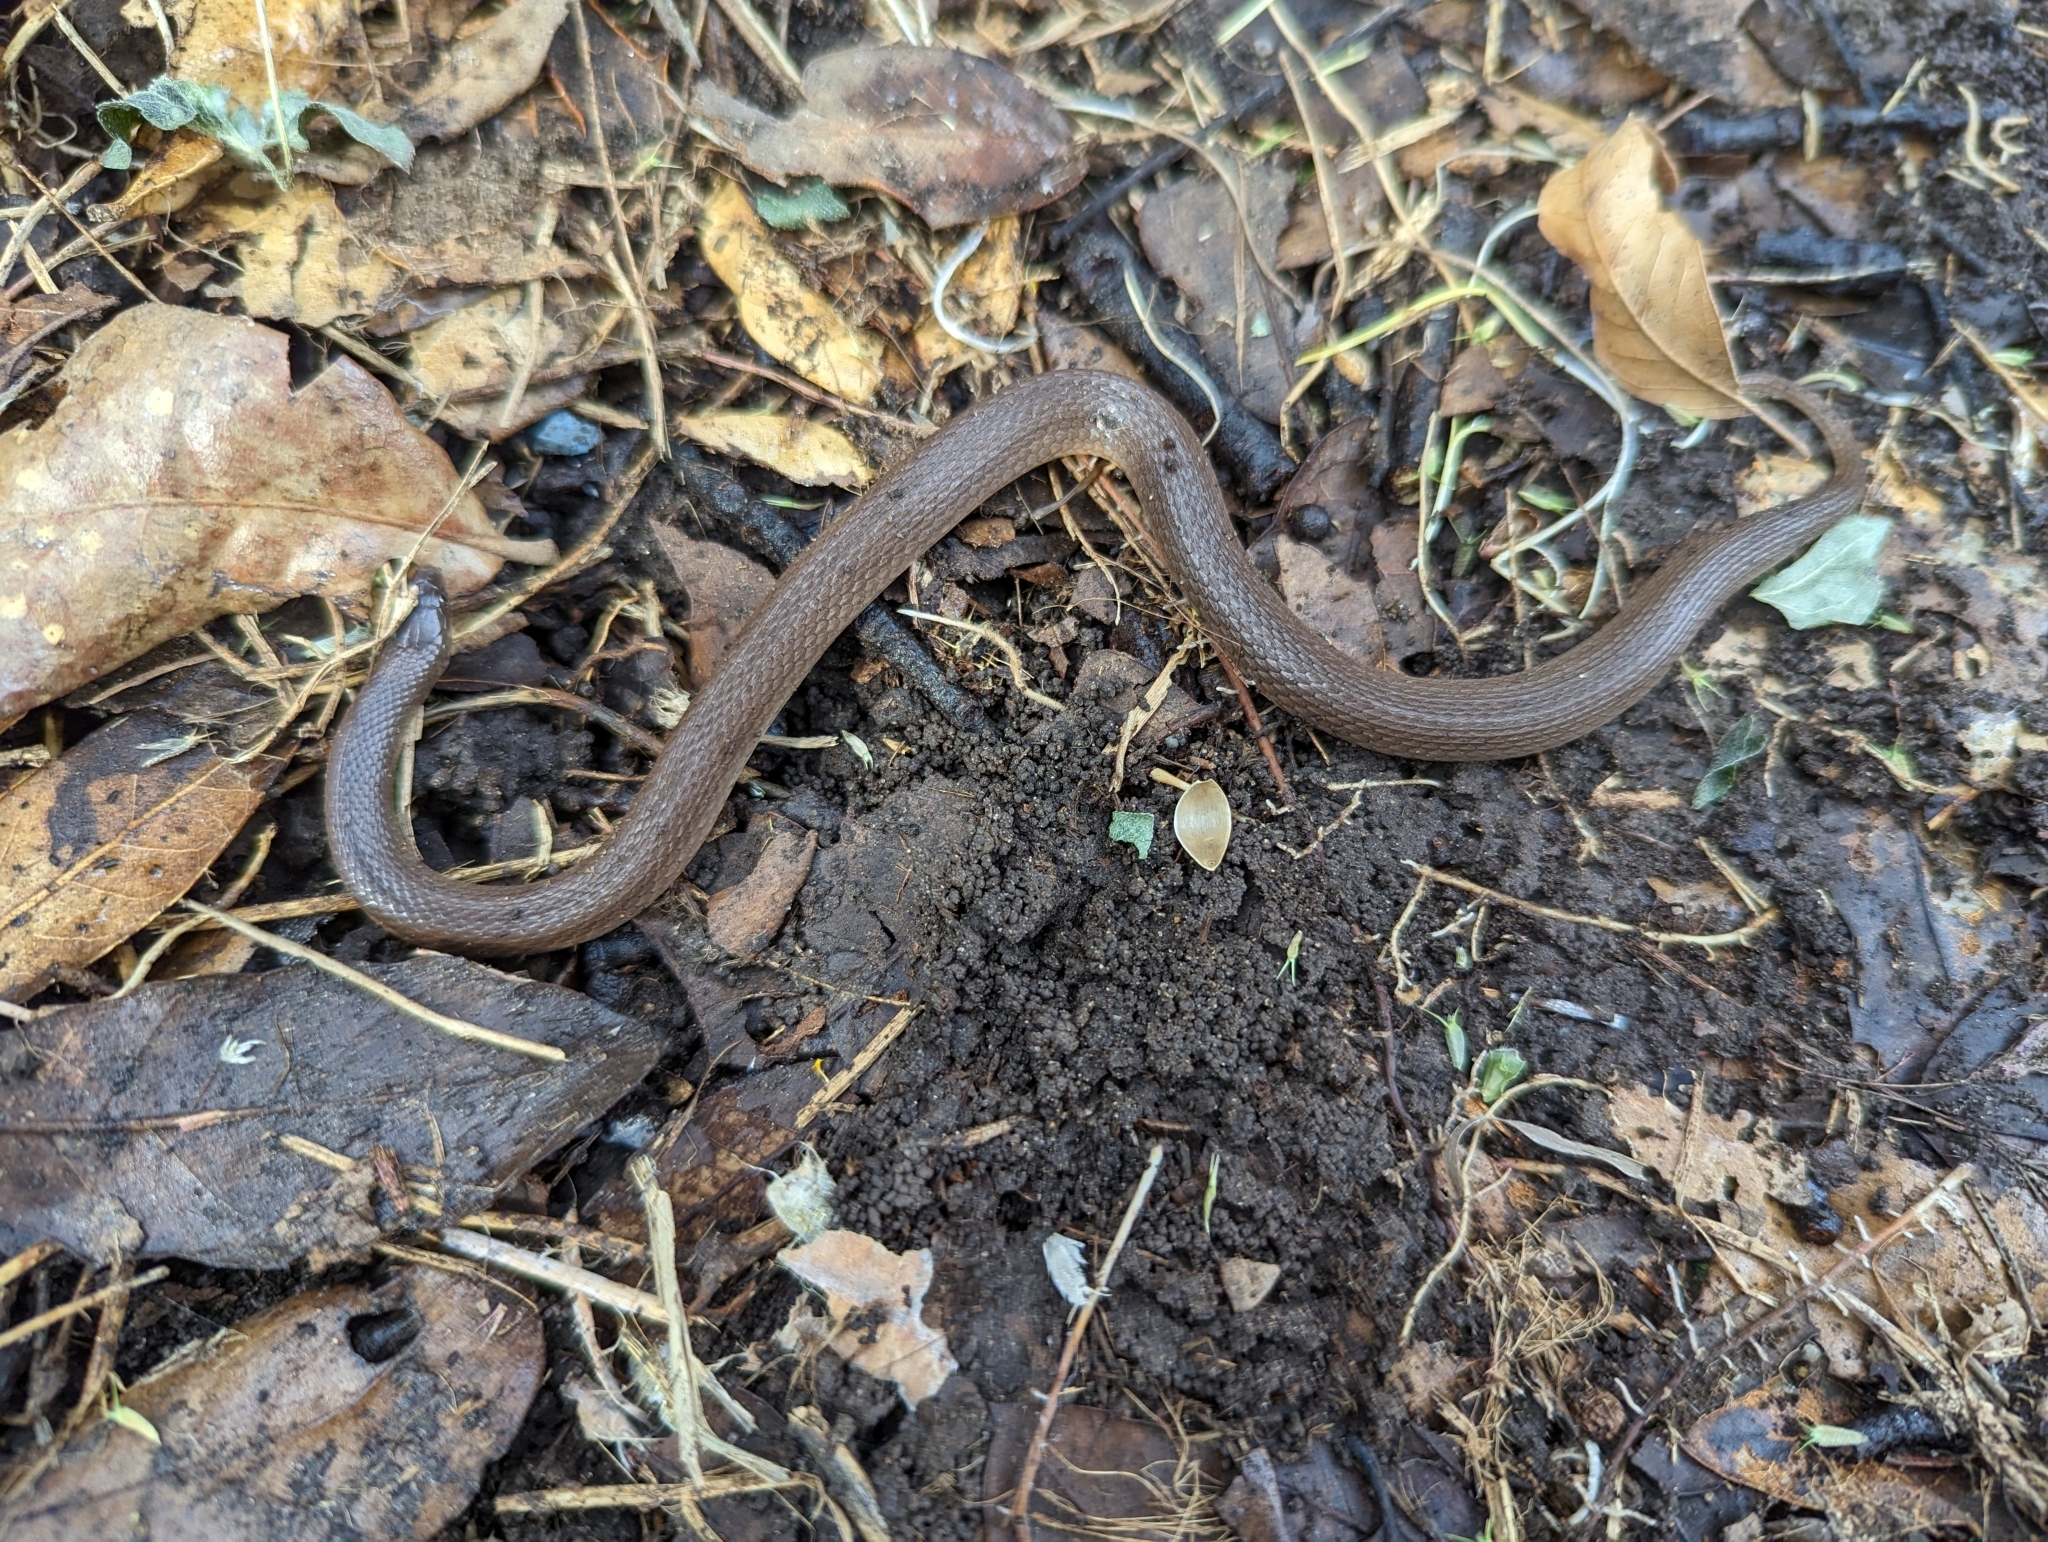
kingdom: Animalia
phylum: Chordata
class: Squamata
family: Colubridae
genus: Haldea
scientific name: Haldea striatula
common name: Rough earth snake
